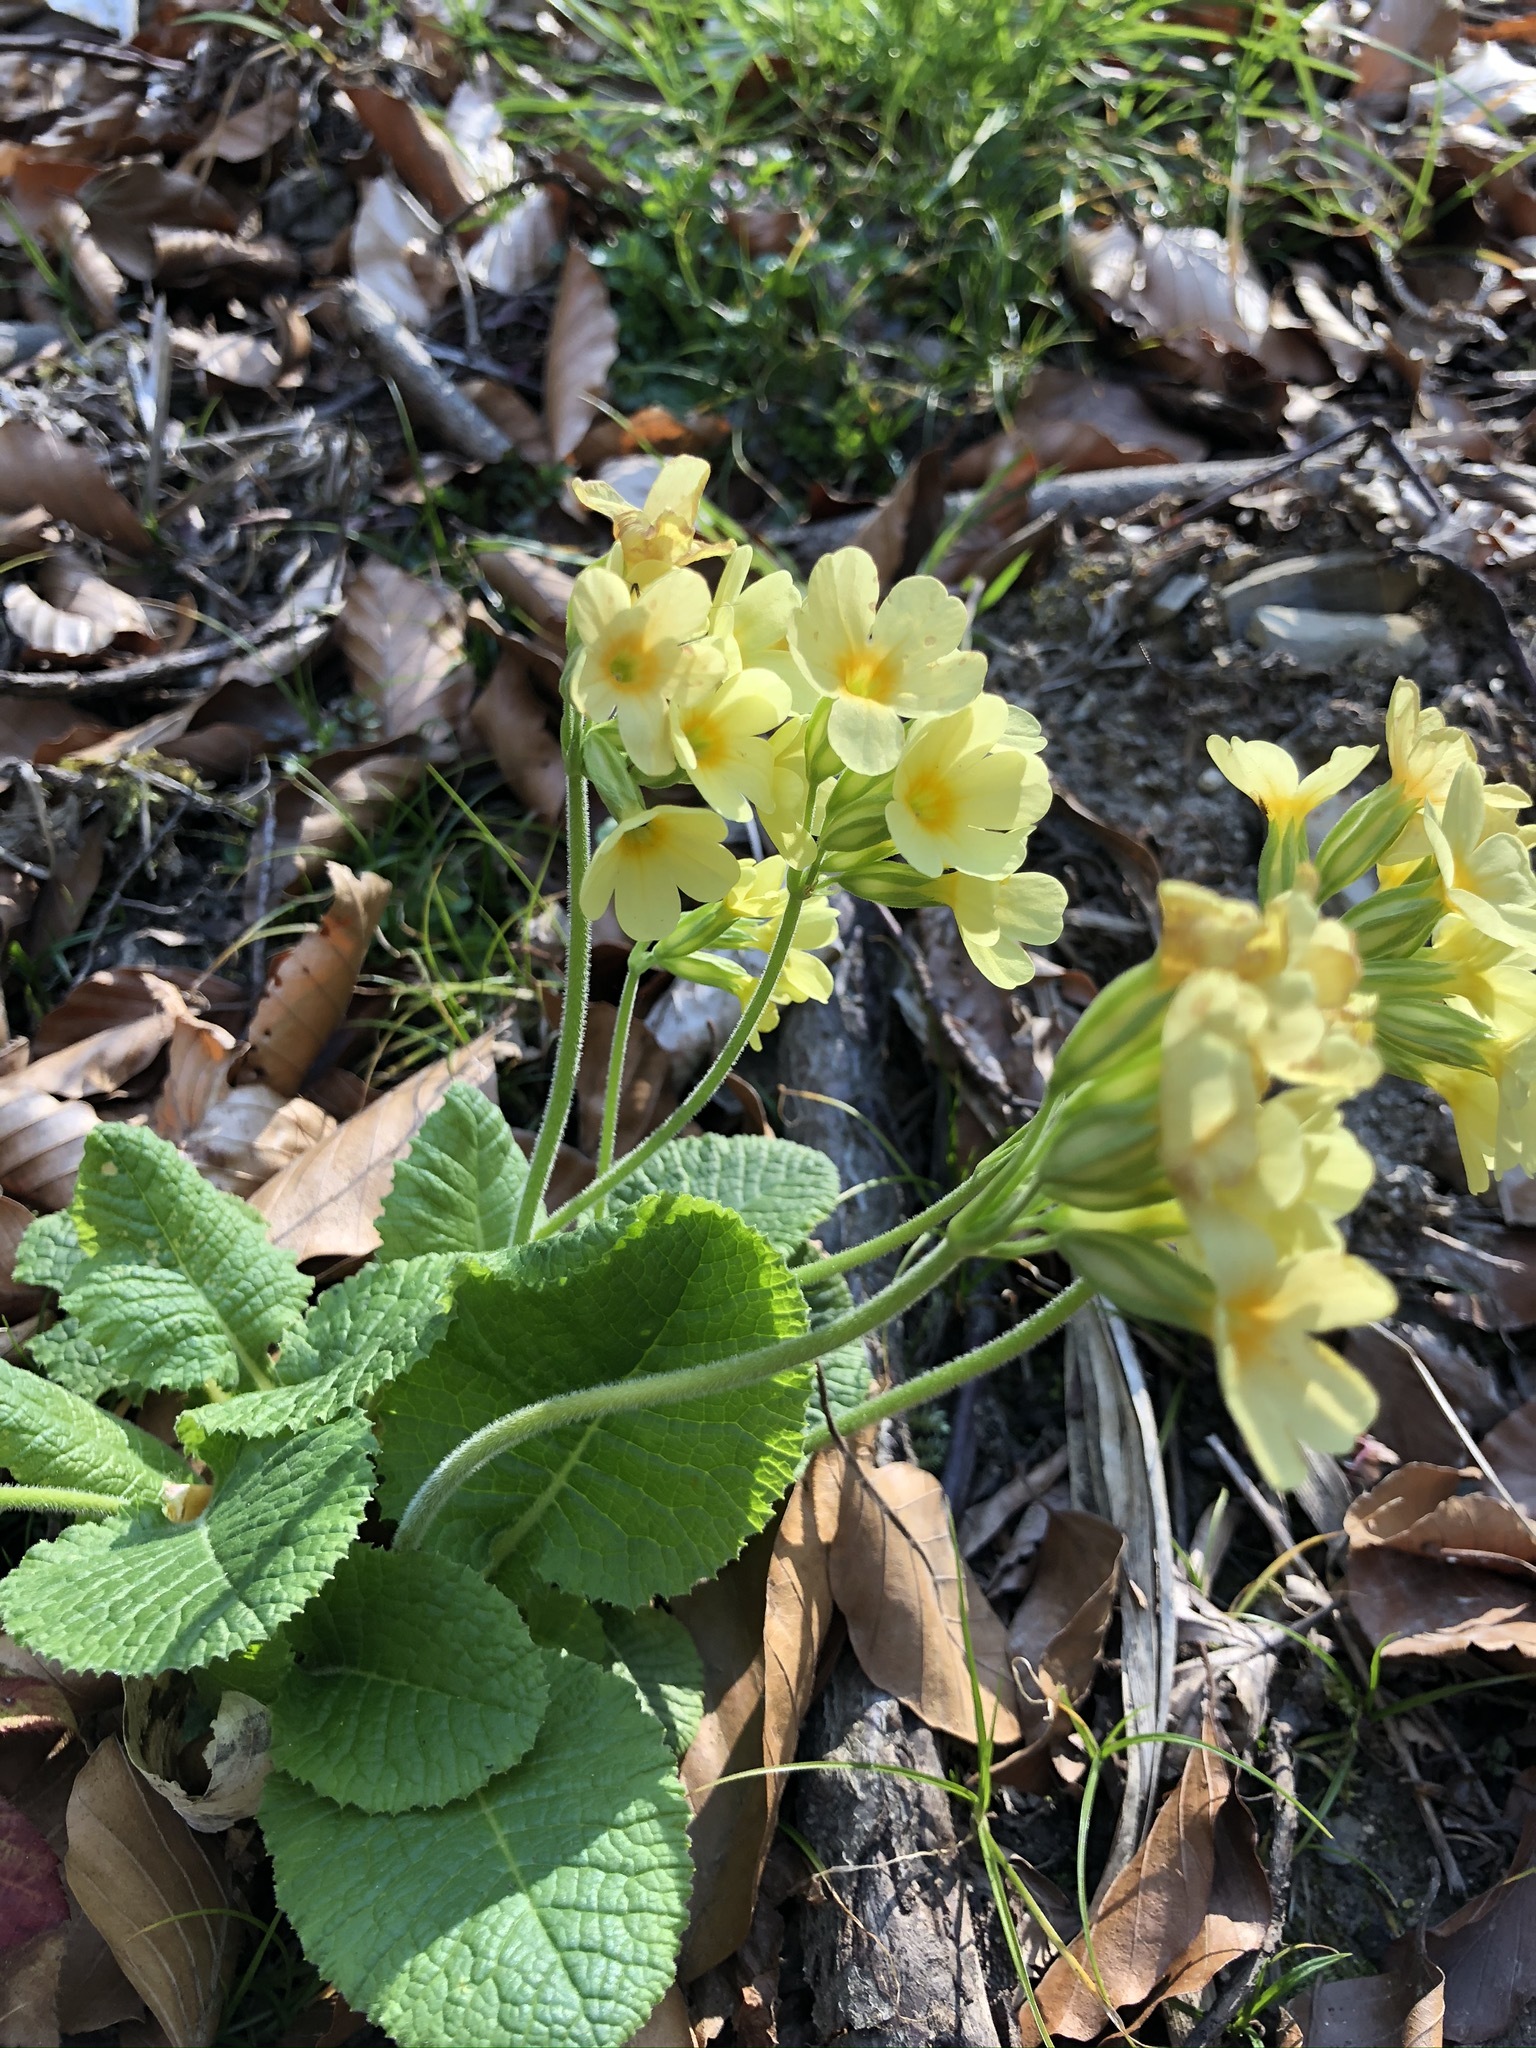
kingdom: Plantae
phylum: Tracheophyta
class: Magnoliopsida
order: Ericales
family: Primulaceae
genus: Primula
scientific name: Primula elatior
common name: Oxlip
